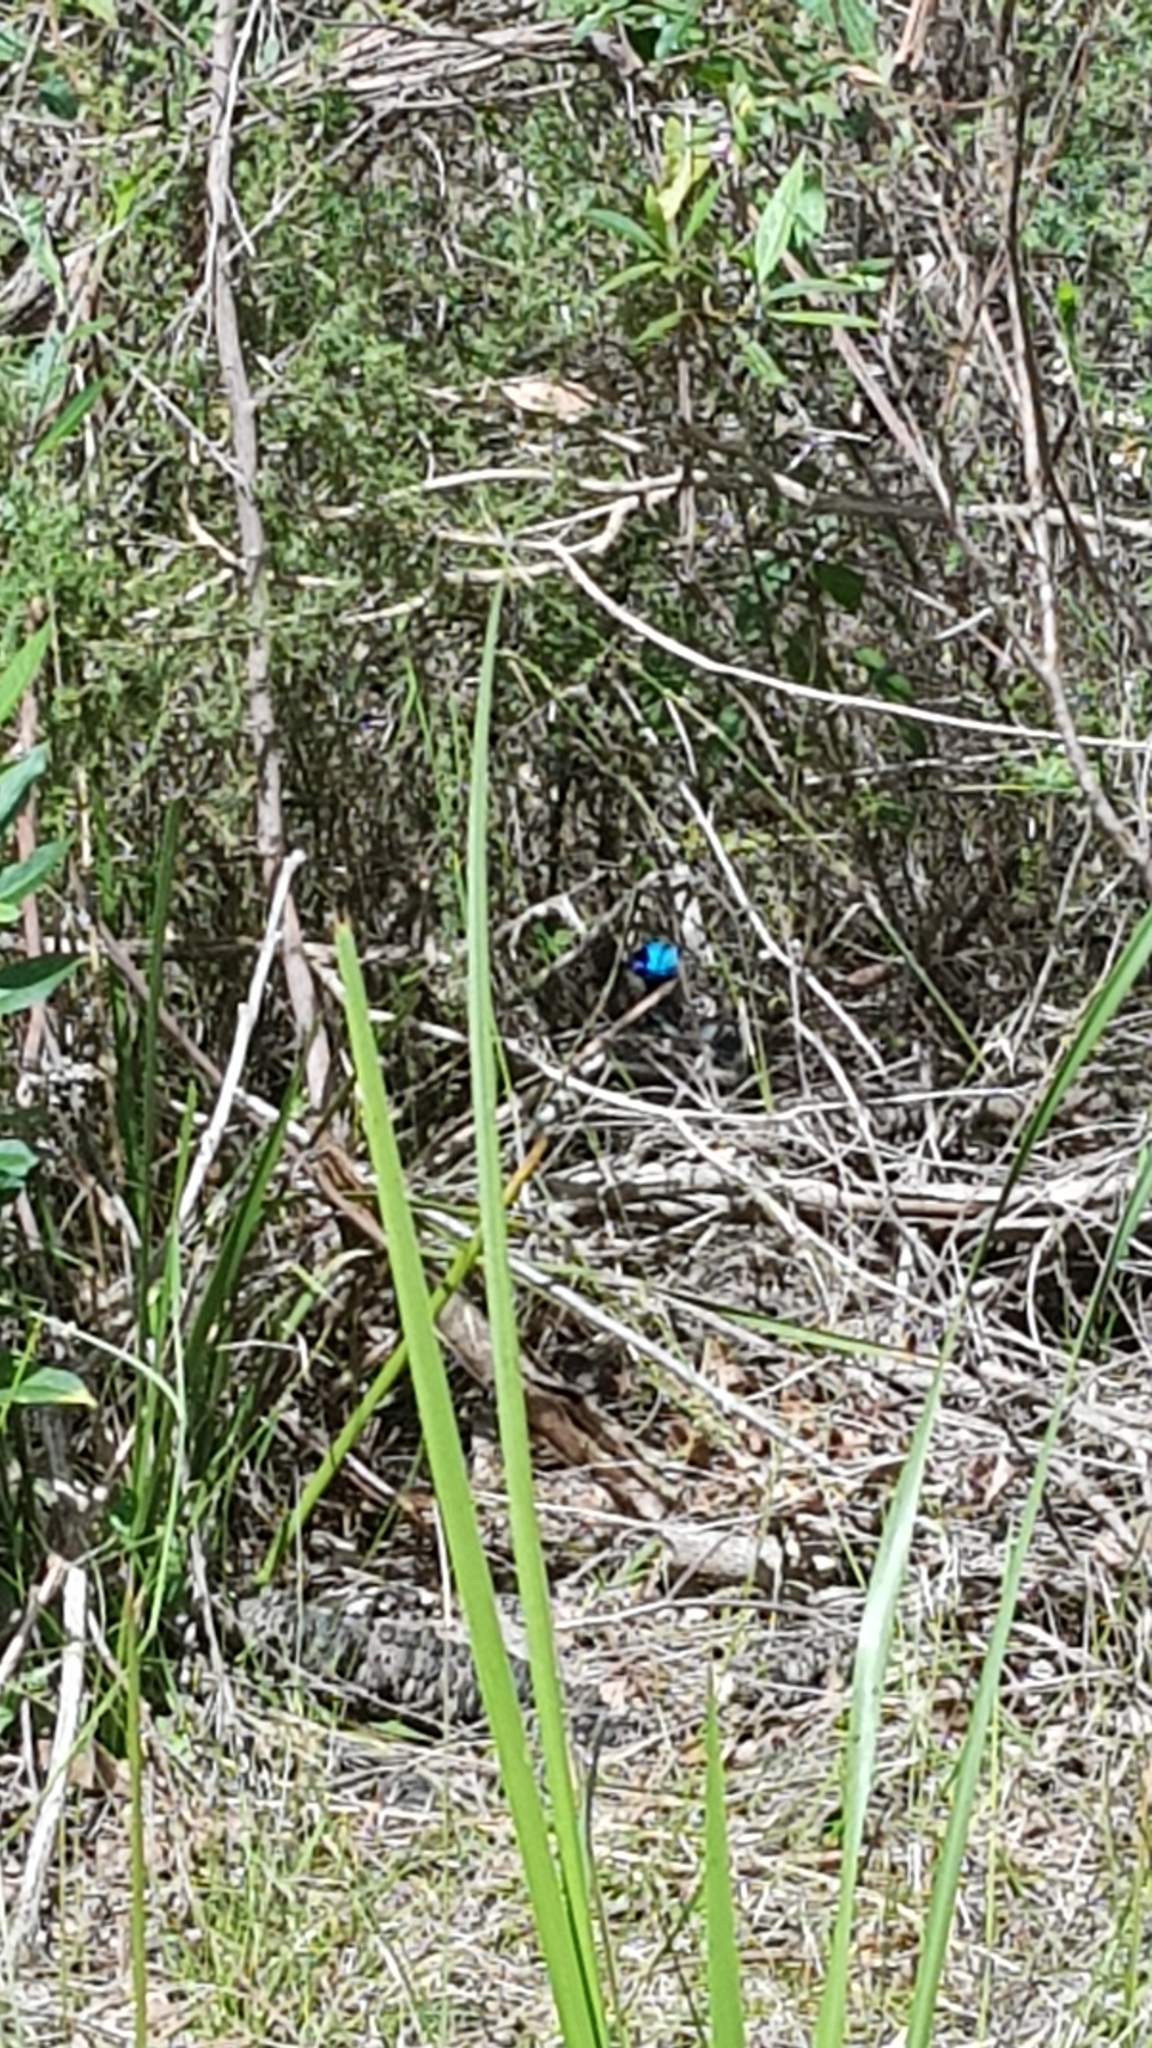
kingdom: Animalia
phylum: Chordata
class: Aves
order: Passeriformes
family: Maluridae
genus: Malurus
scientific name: Malurus lamberti
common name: Variegated fairywren
